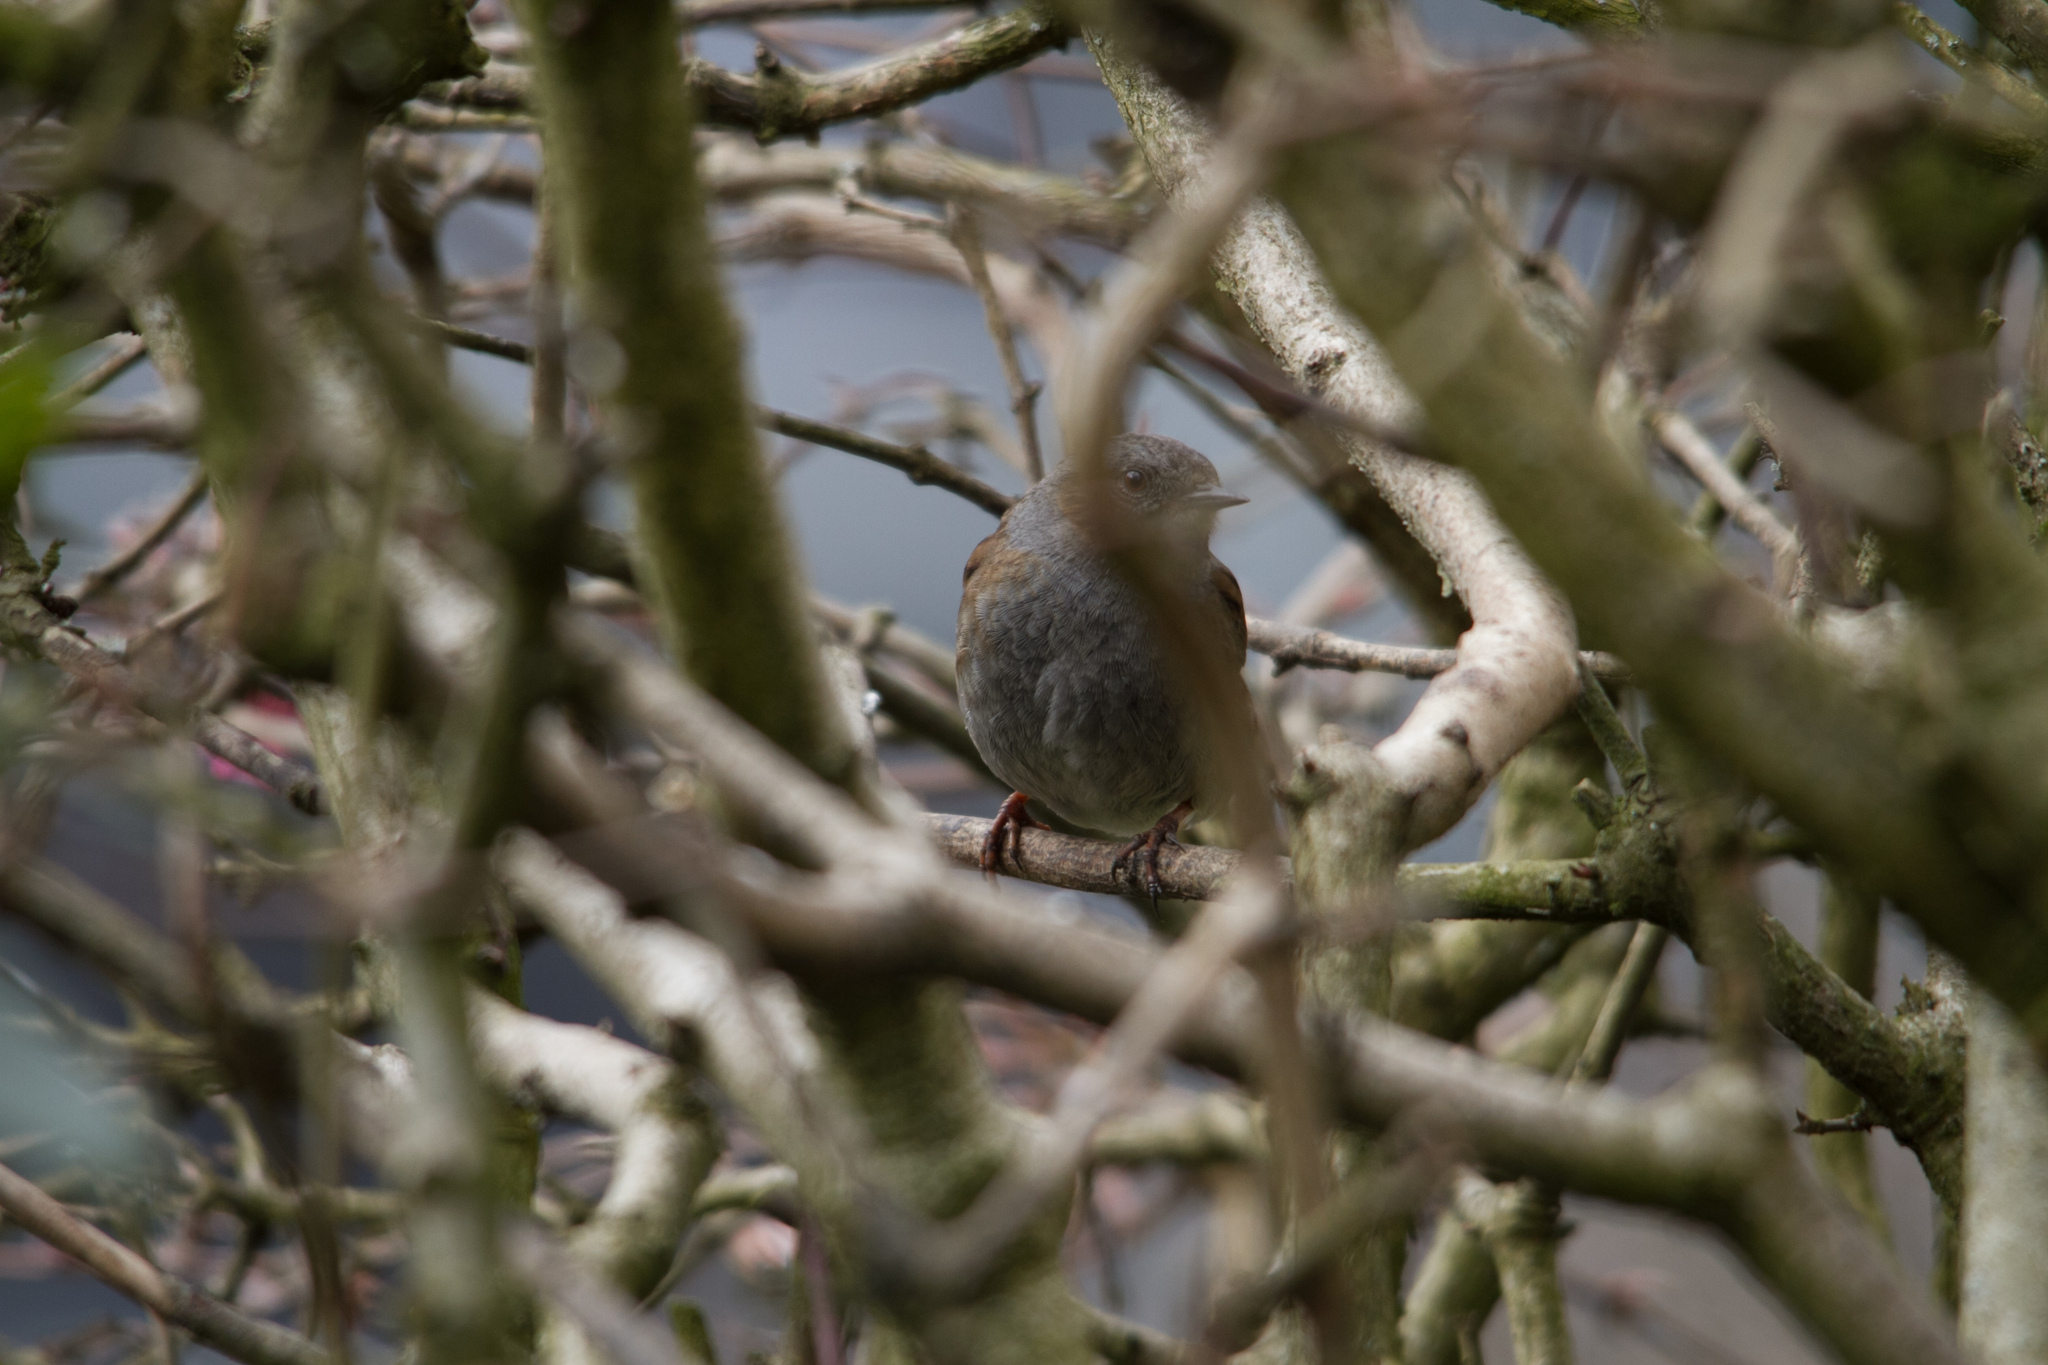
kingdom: Animalia
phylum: Chordata
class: Aves
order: Passeriformes
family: Prunellidae
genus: Prunella
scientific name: Prunella modularis
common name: Dunnock
